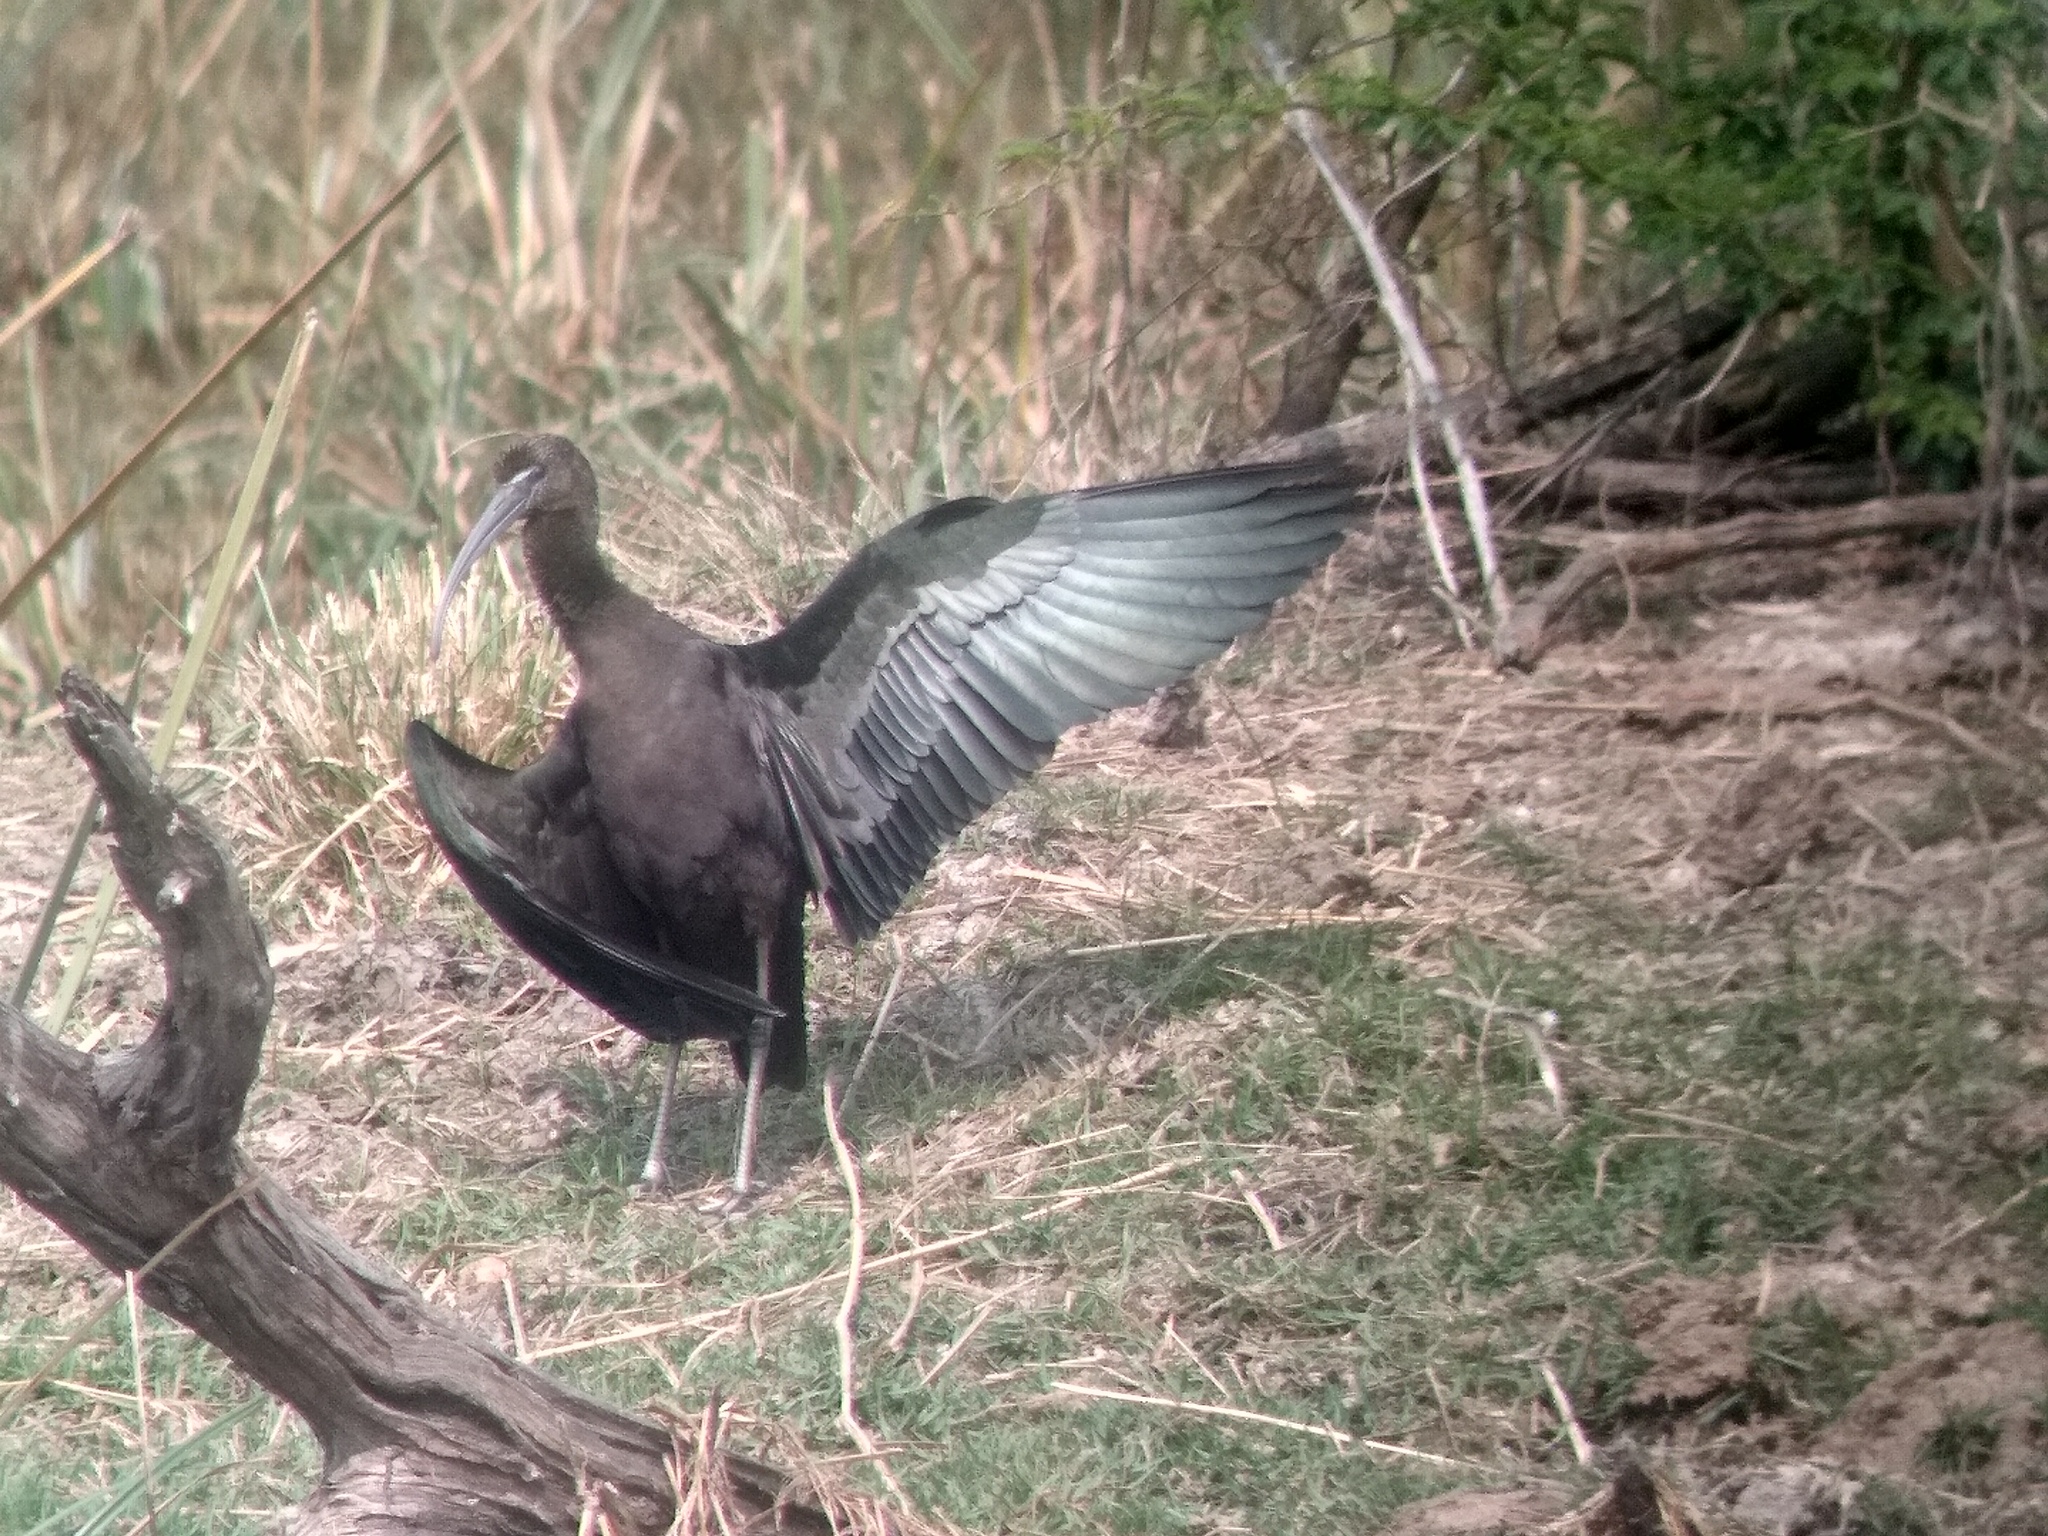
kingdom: Animalia
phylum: Chordata
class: Aves
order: Pelecaniformes
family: Threskiornithidae
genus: Plegadis
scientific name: Plegadis falcinellus
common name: Glossy ibis
